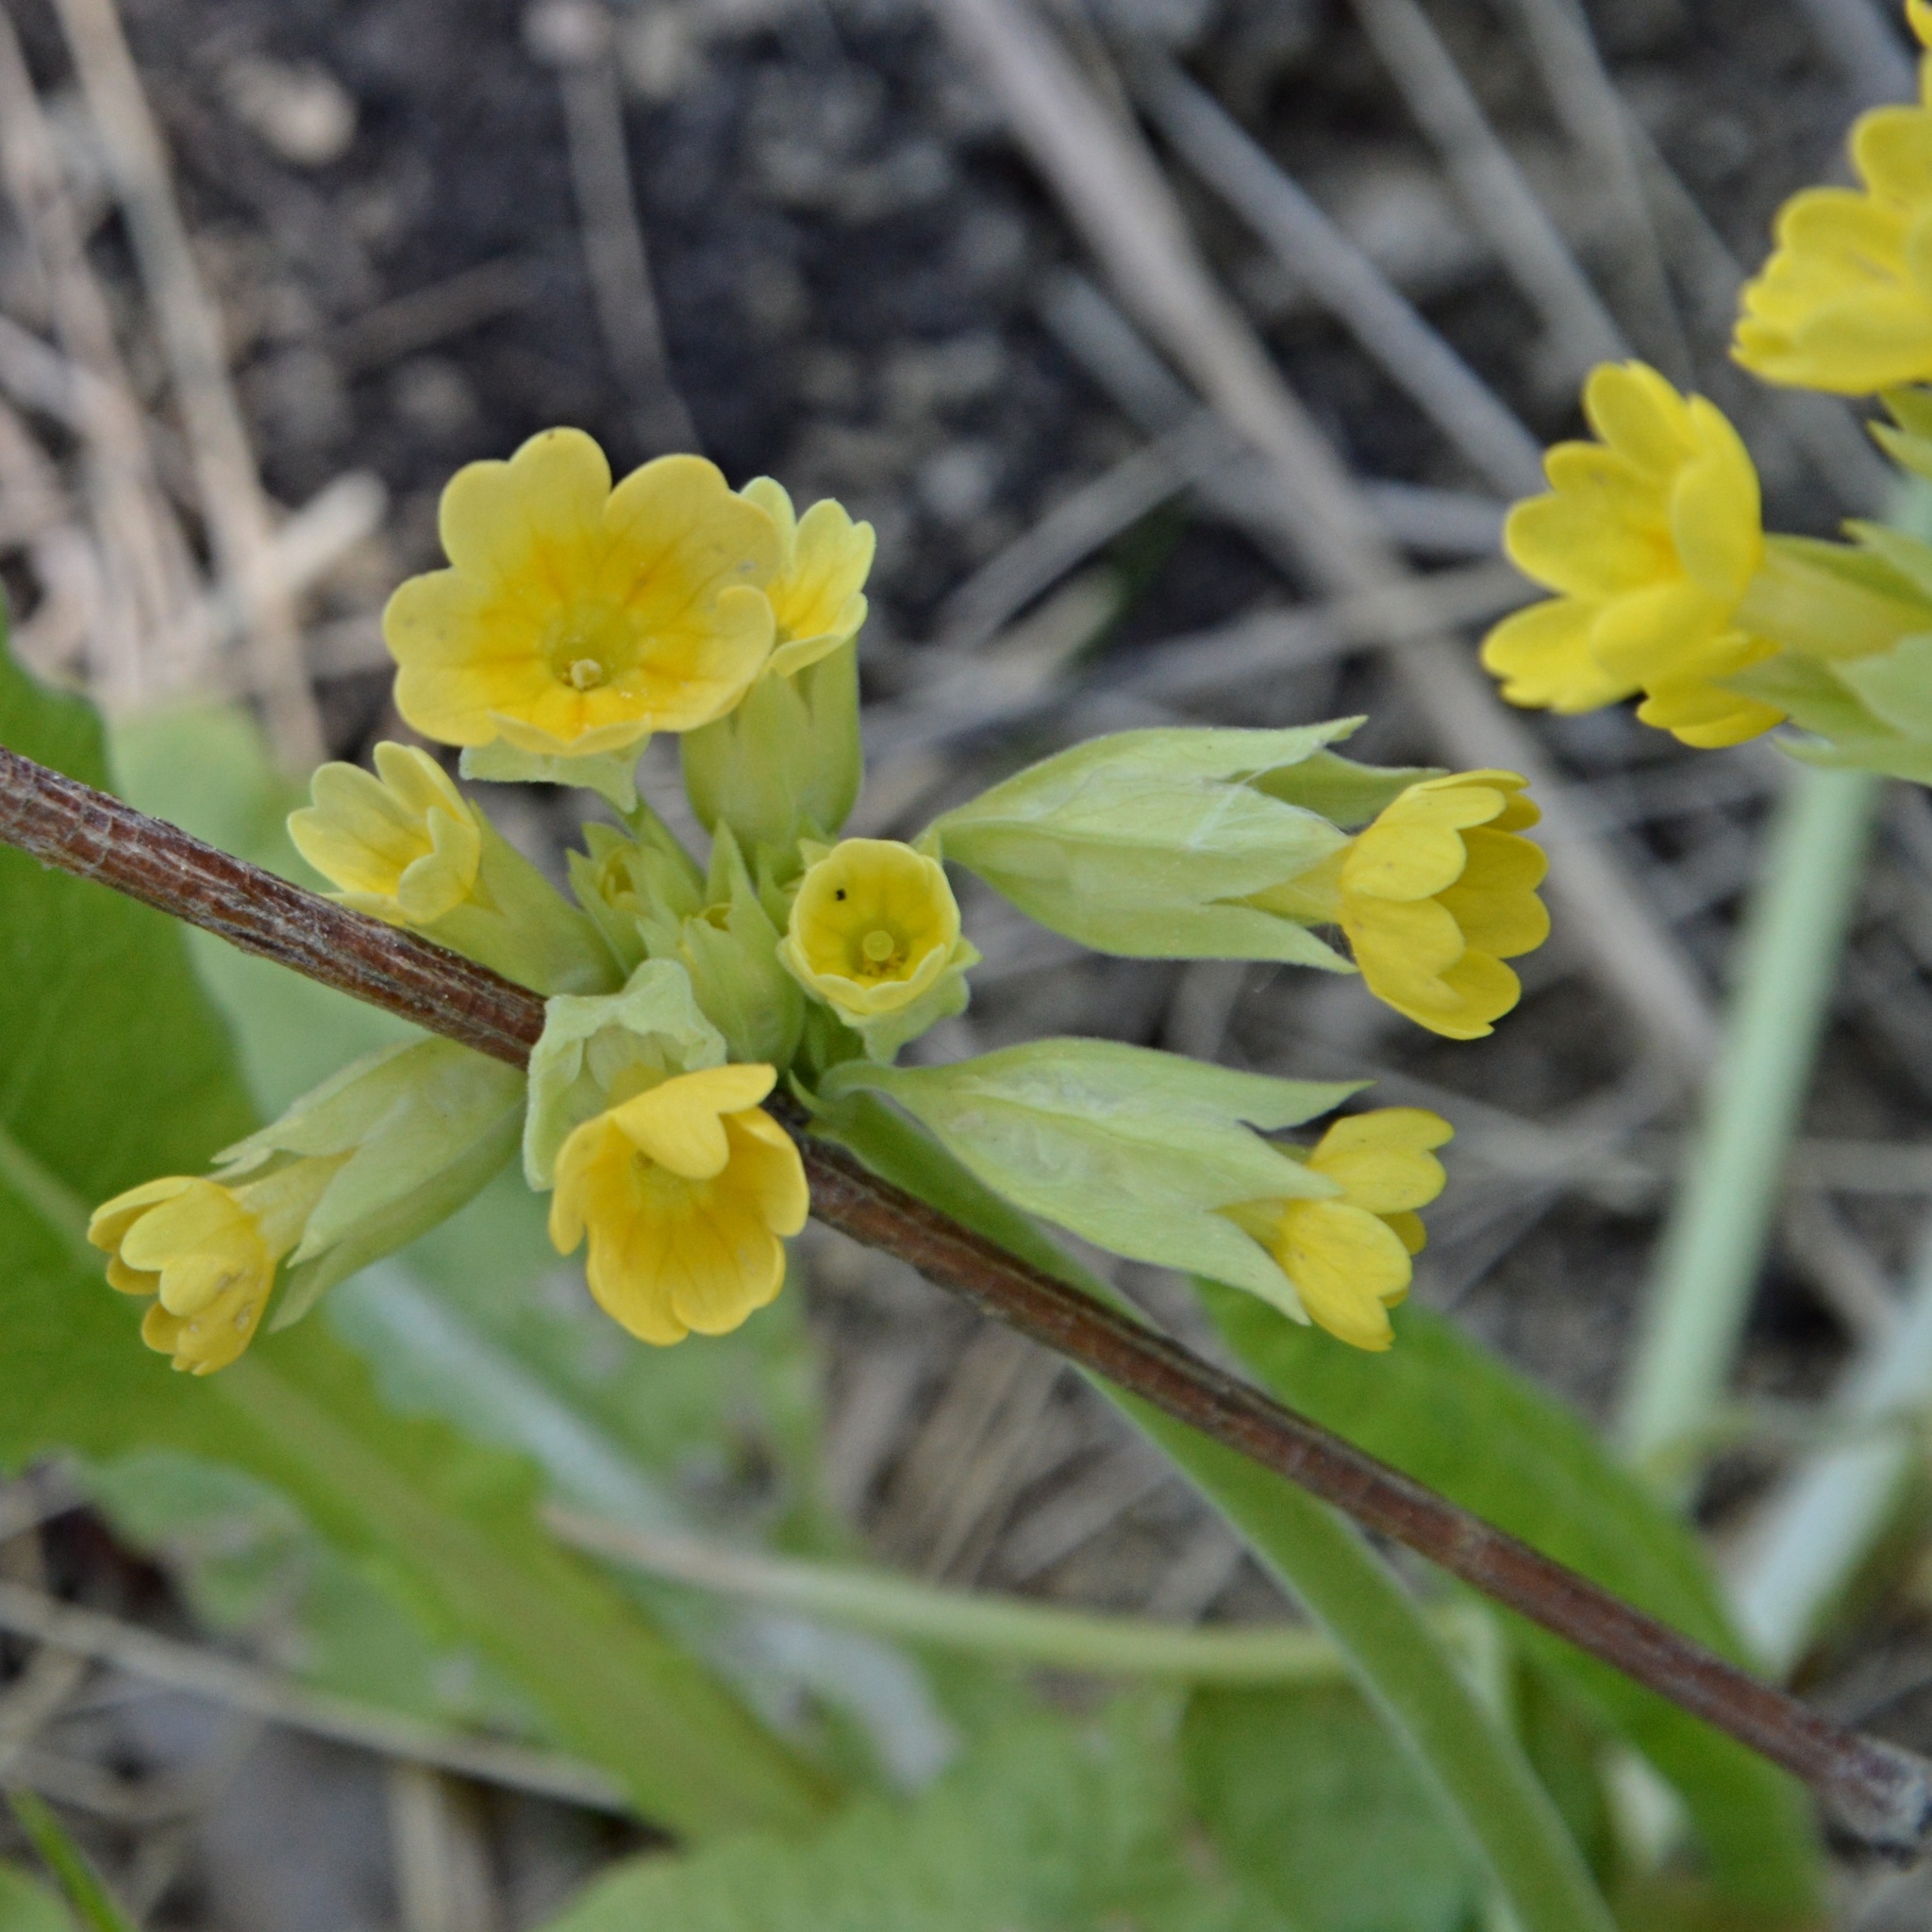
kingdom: Plantae
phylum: Tracheophyta
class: Magnoliopsida
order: Ericales
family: Primulaceae
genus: Primula
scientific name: Primula veris
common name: Cowslip
